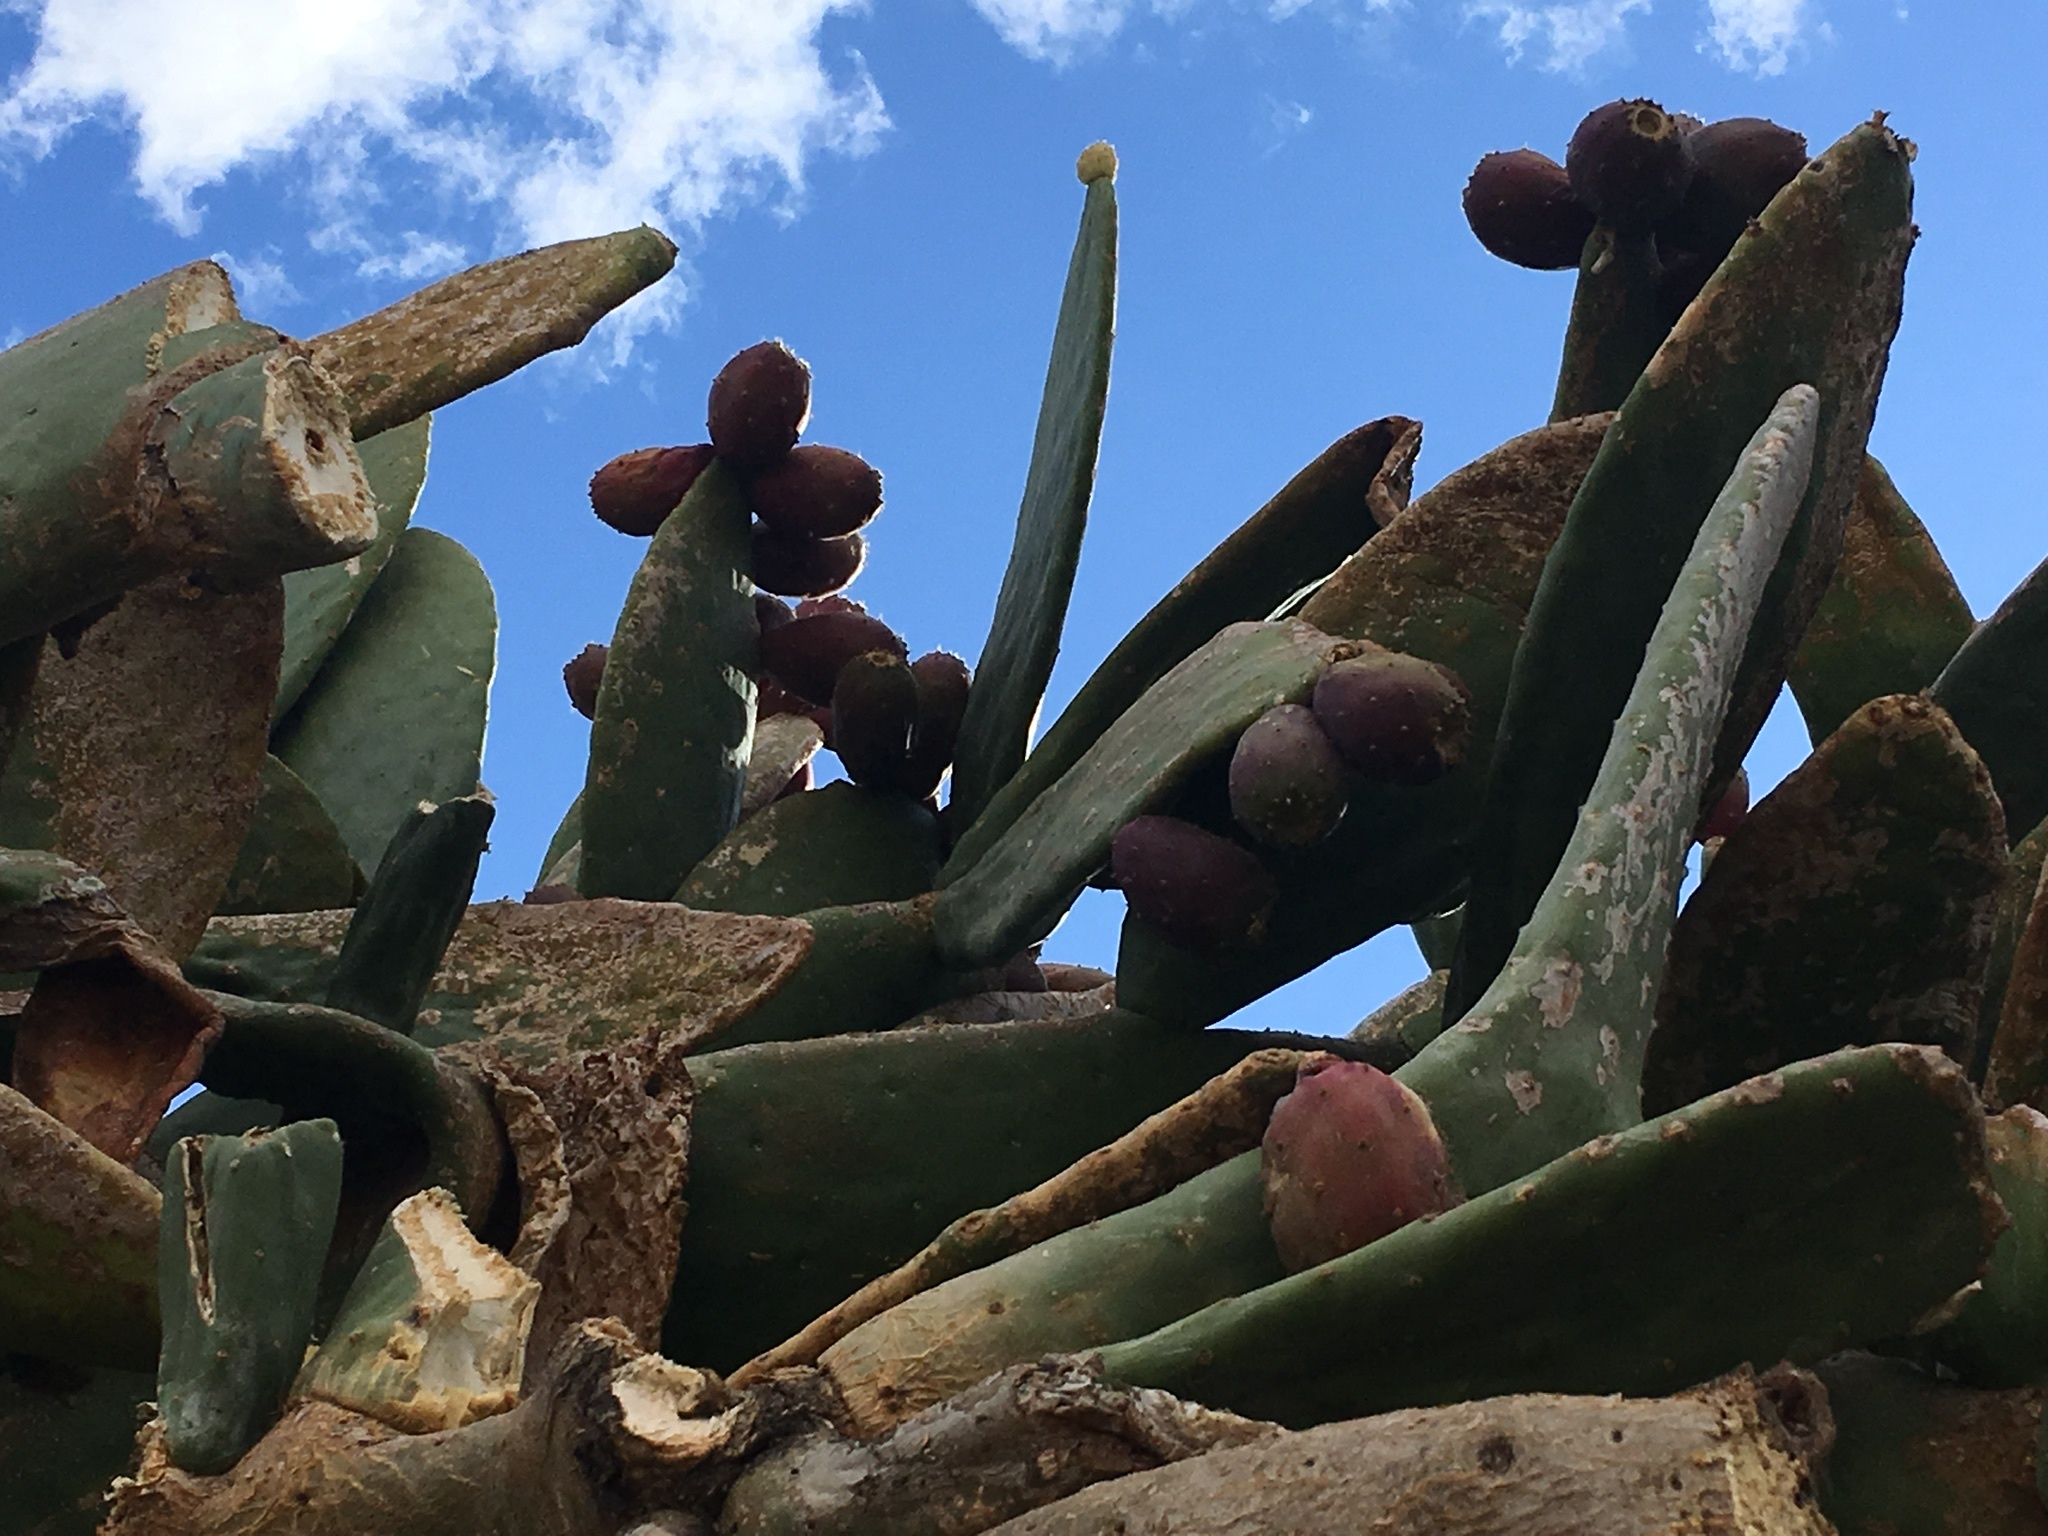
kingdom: Plantae
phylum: Tracheophyta
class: Magnoliopsida
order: Caryophyllales
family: Cactaceae
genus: Opuntia
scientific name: Opuntia ficus-indica
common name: Barbary fig
